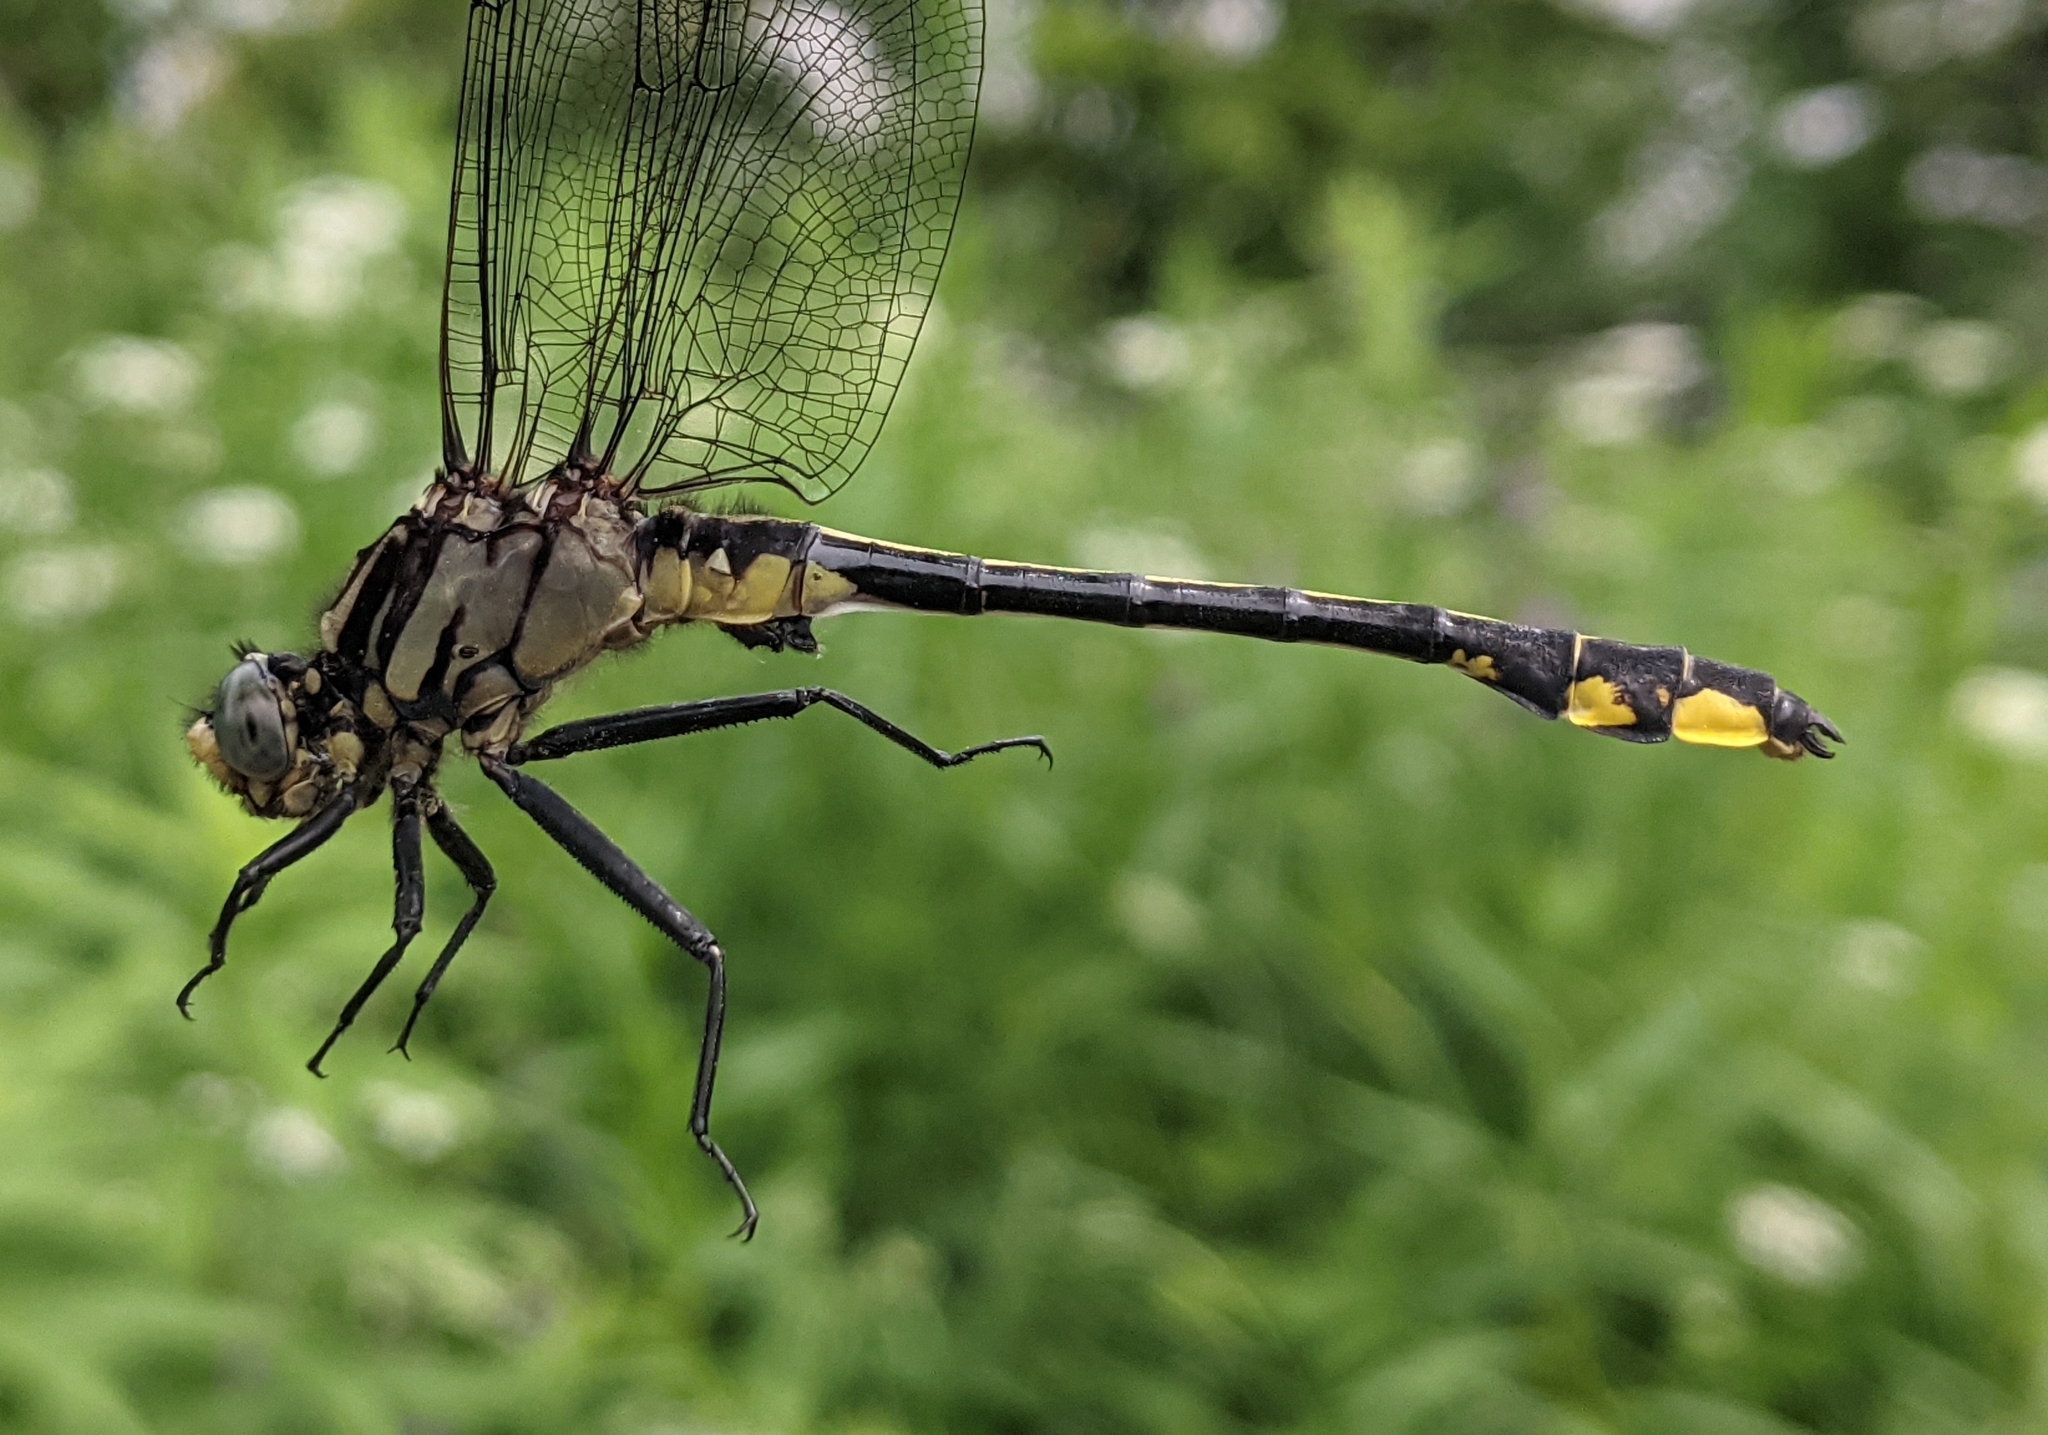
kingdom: Animalia
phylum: Arthropoda
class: Insecta
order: Odonata
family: Gomphidae
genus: Gomphurus
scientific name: Gomphurus fraternus
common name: Midland clubtail
